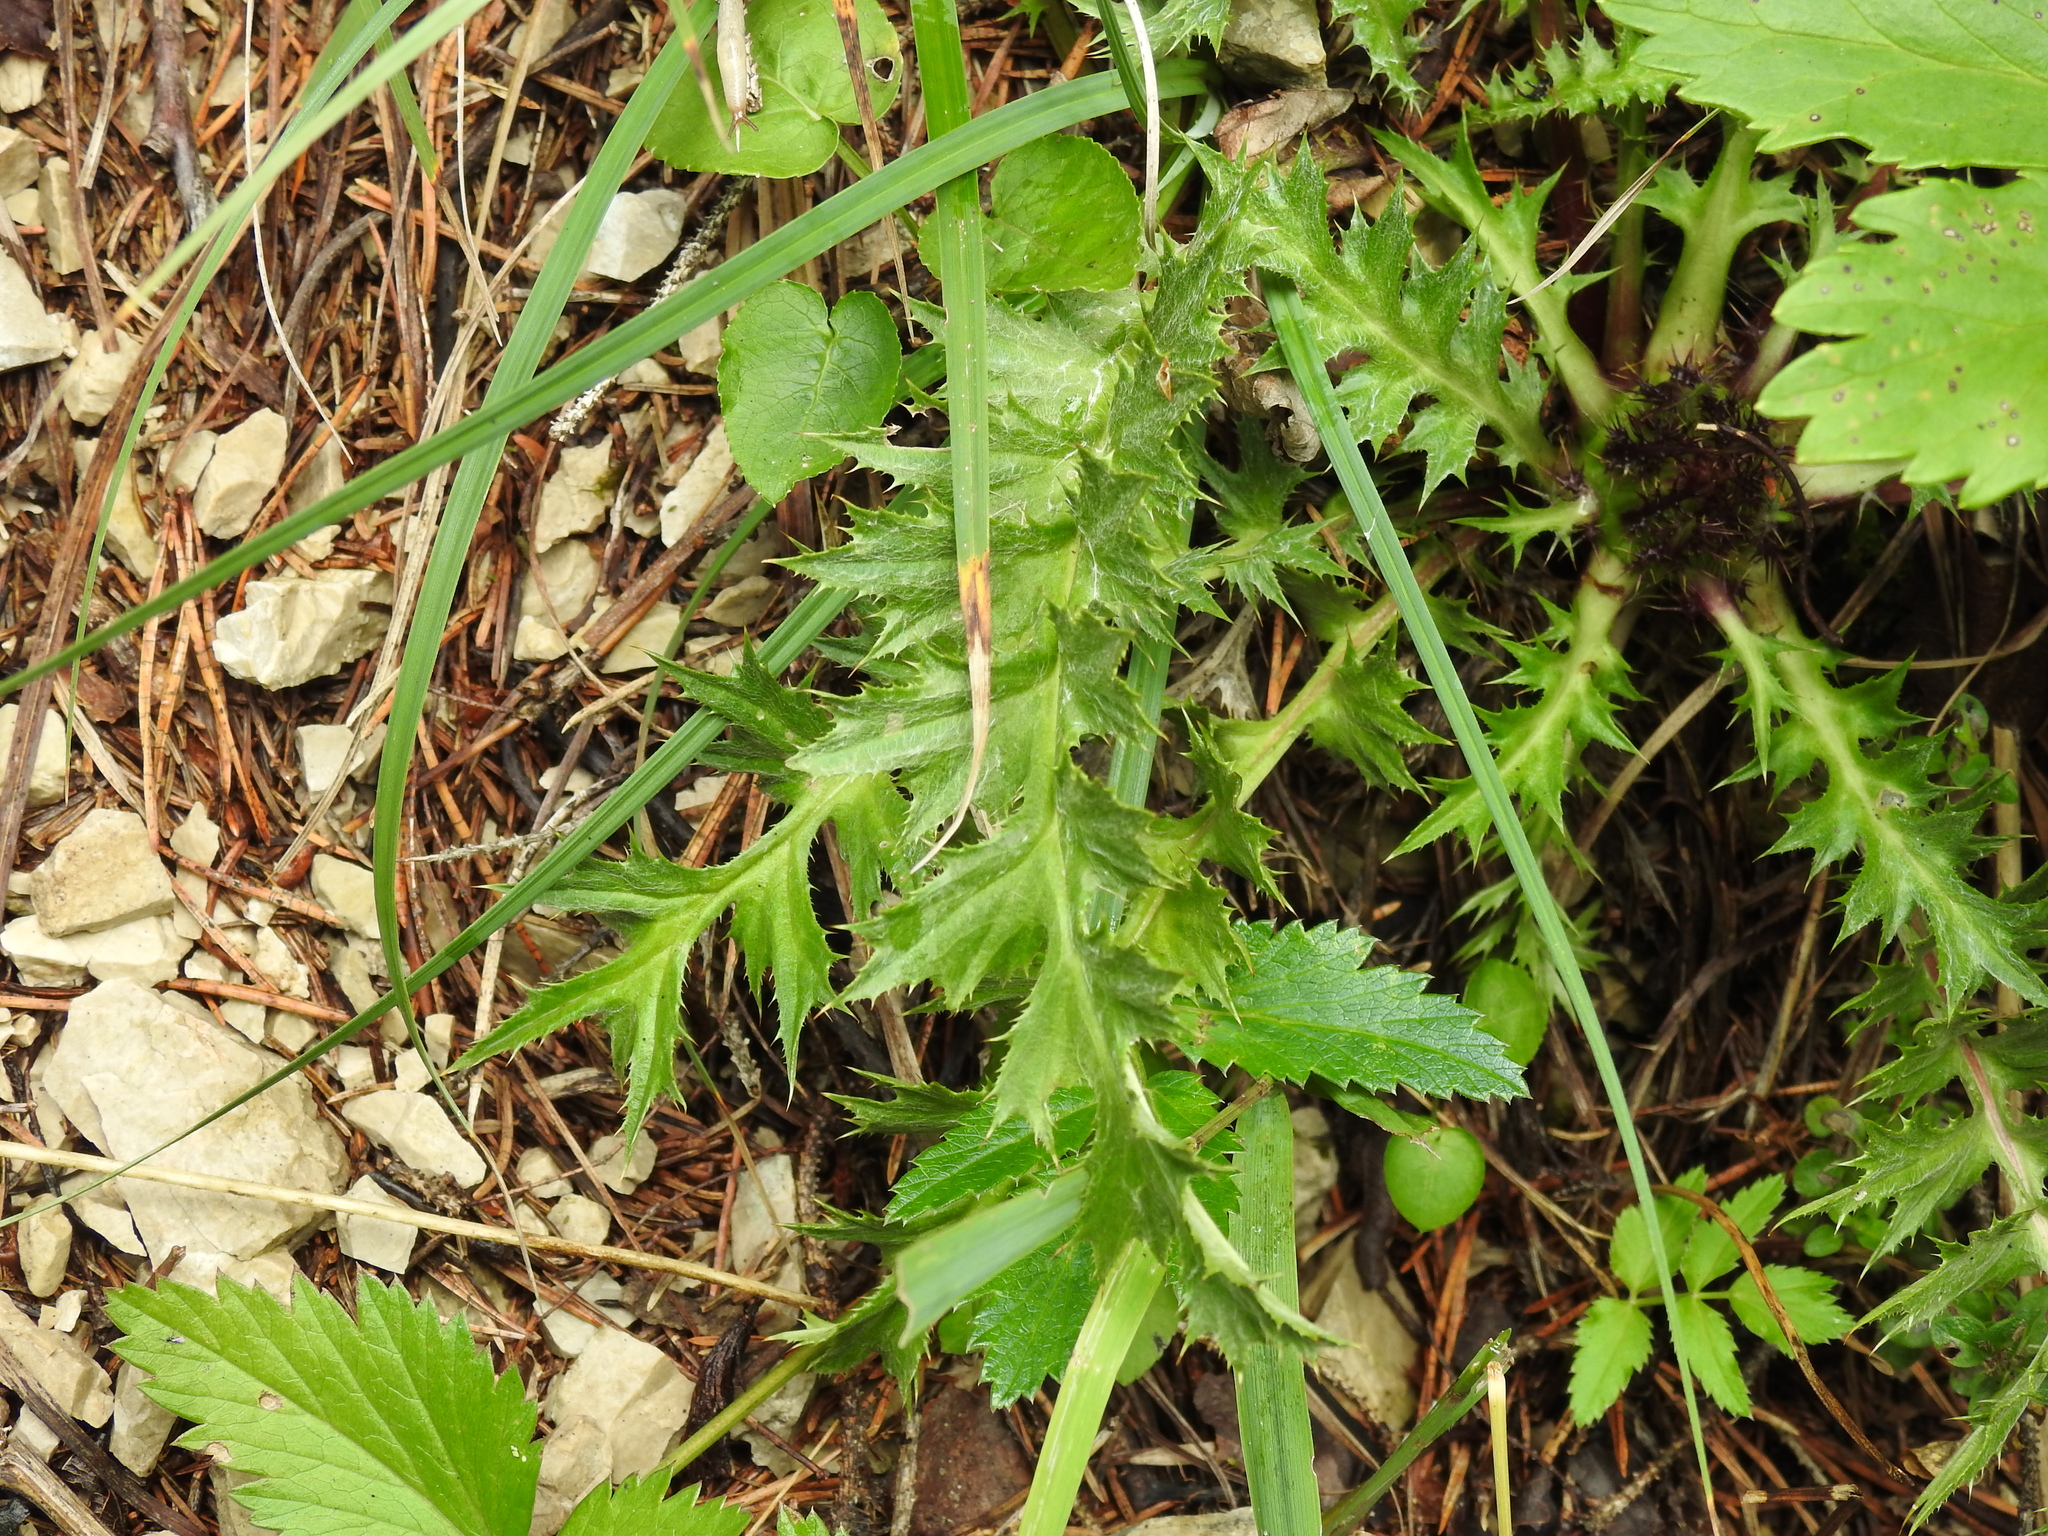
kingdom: Plantae
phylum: Tracheophyta
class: Magnoliopsida
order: Asterales
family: Asteraceae
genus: Carlina
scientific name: Carlina acaulis
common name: Stemless carline thistle
